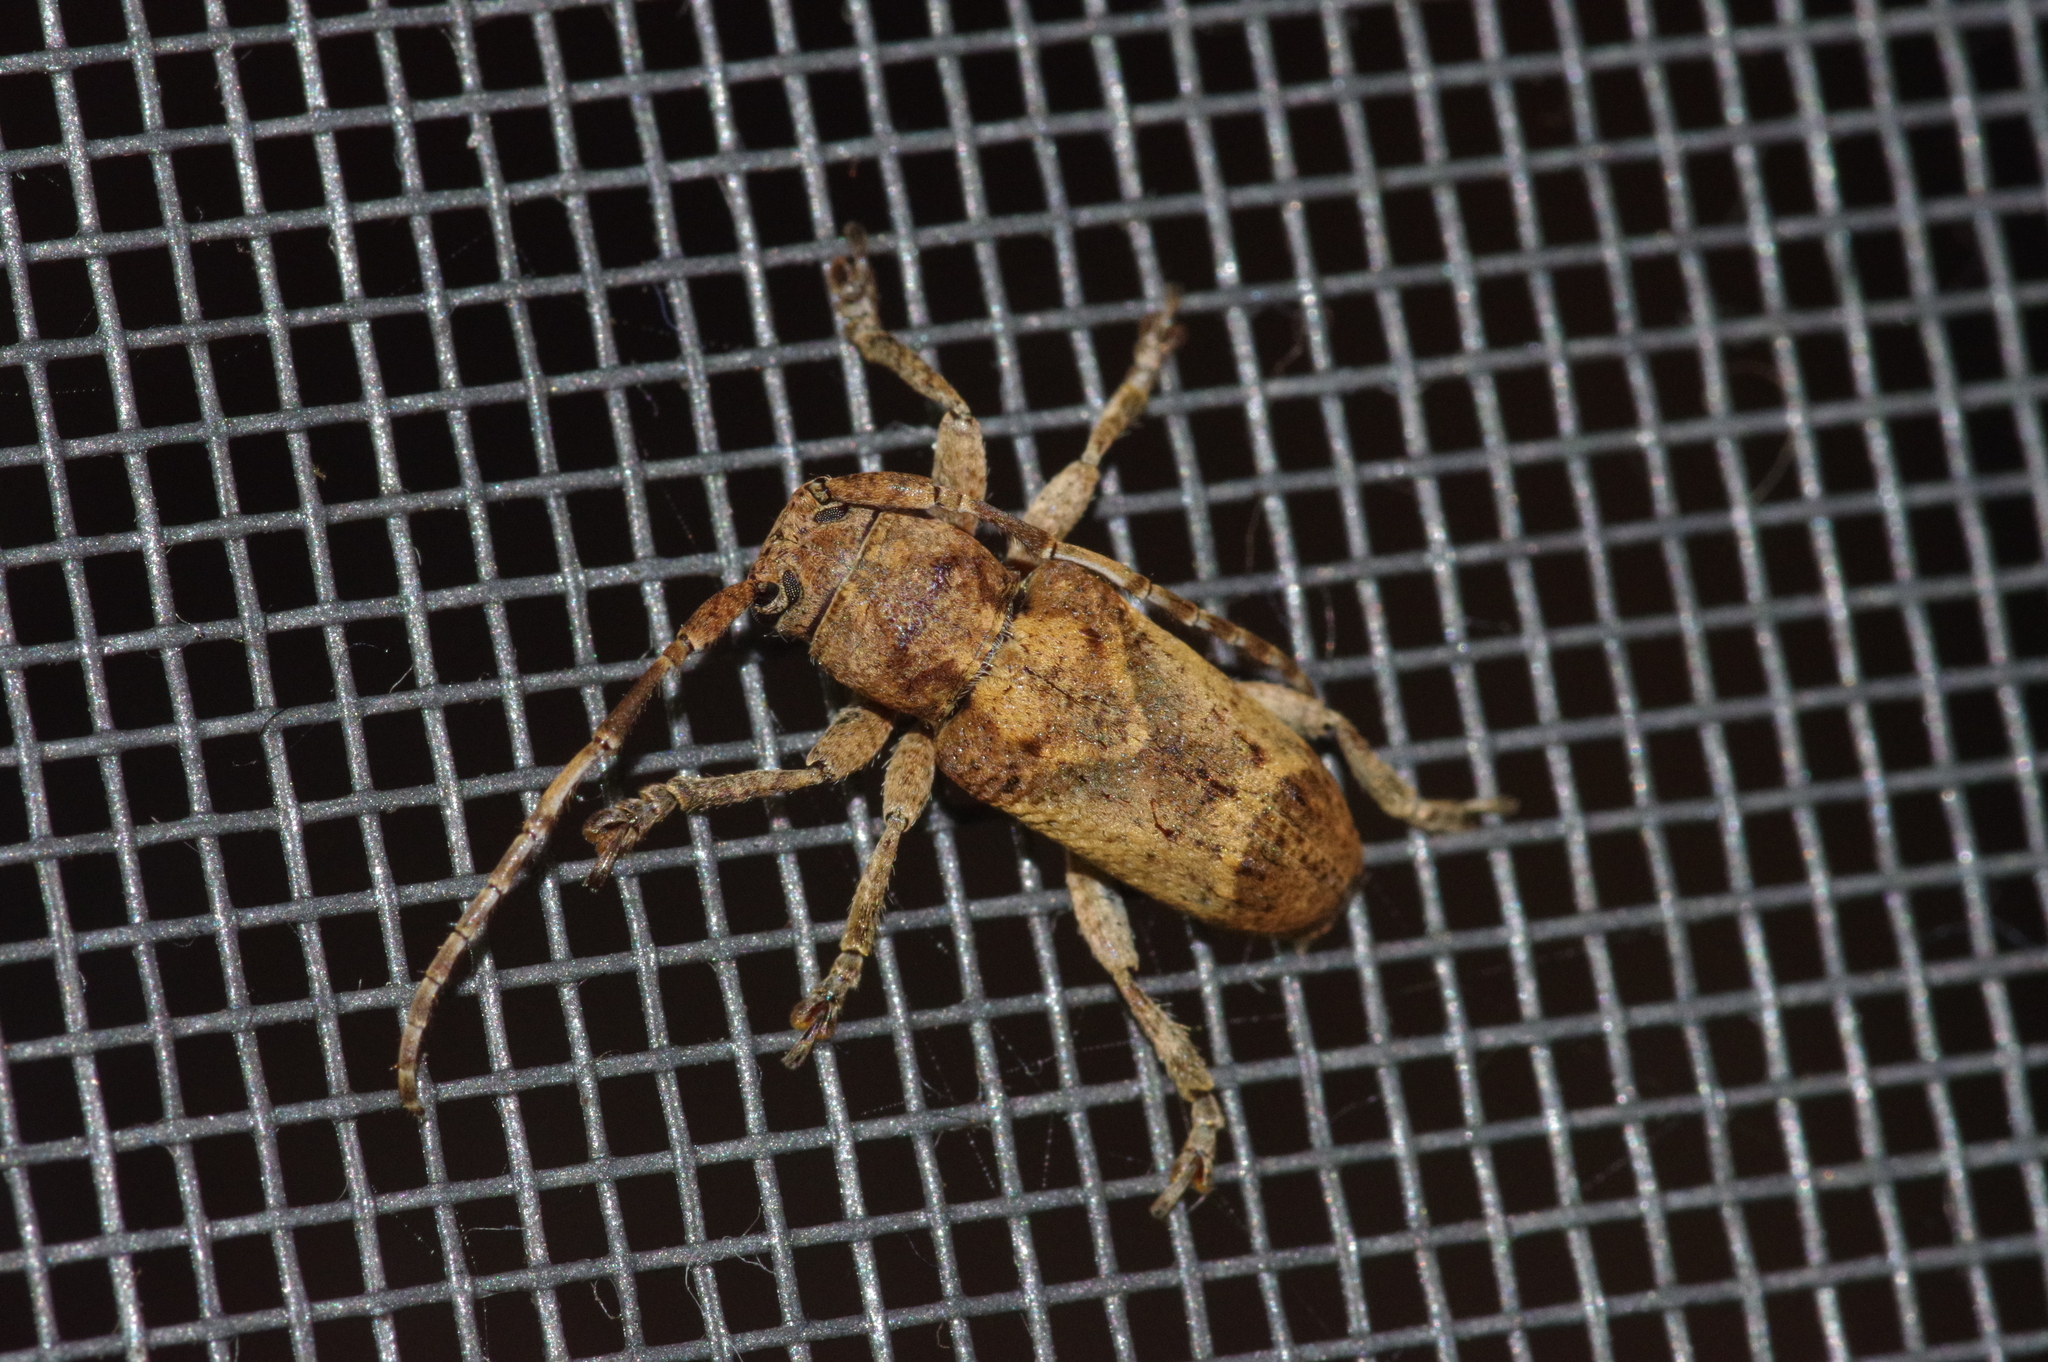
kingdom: Animalia
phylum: Arthropoda
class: Insecta
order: Coleoptera
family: Cerambycidae
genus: Pterolophia
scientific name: Pterolophia annulata
